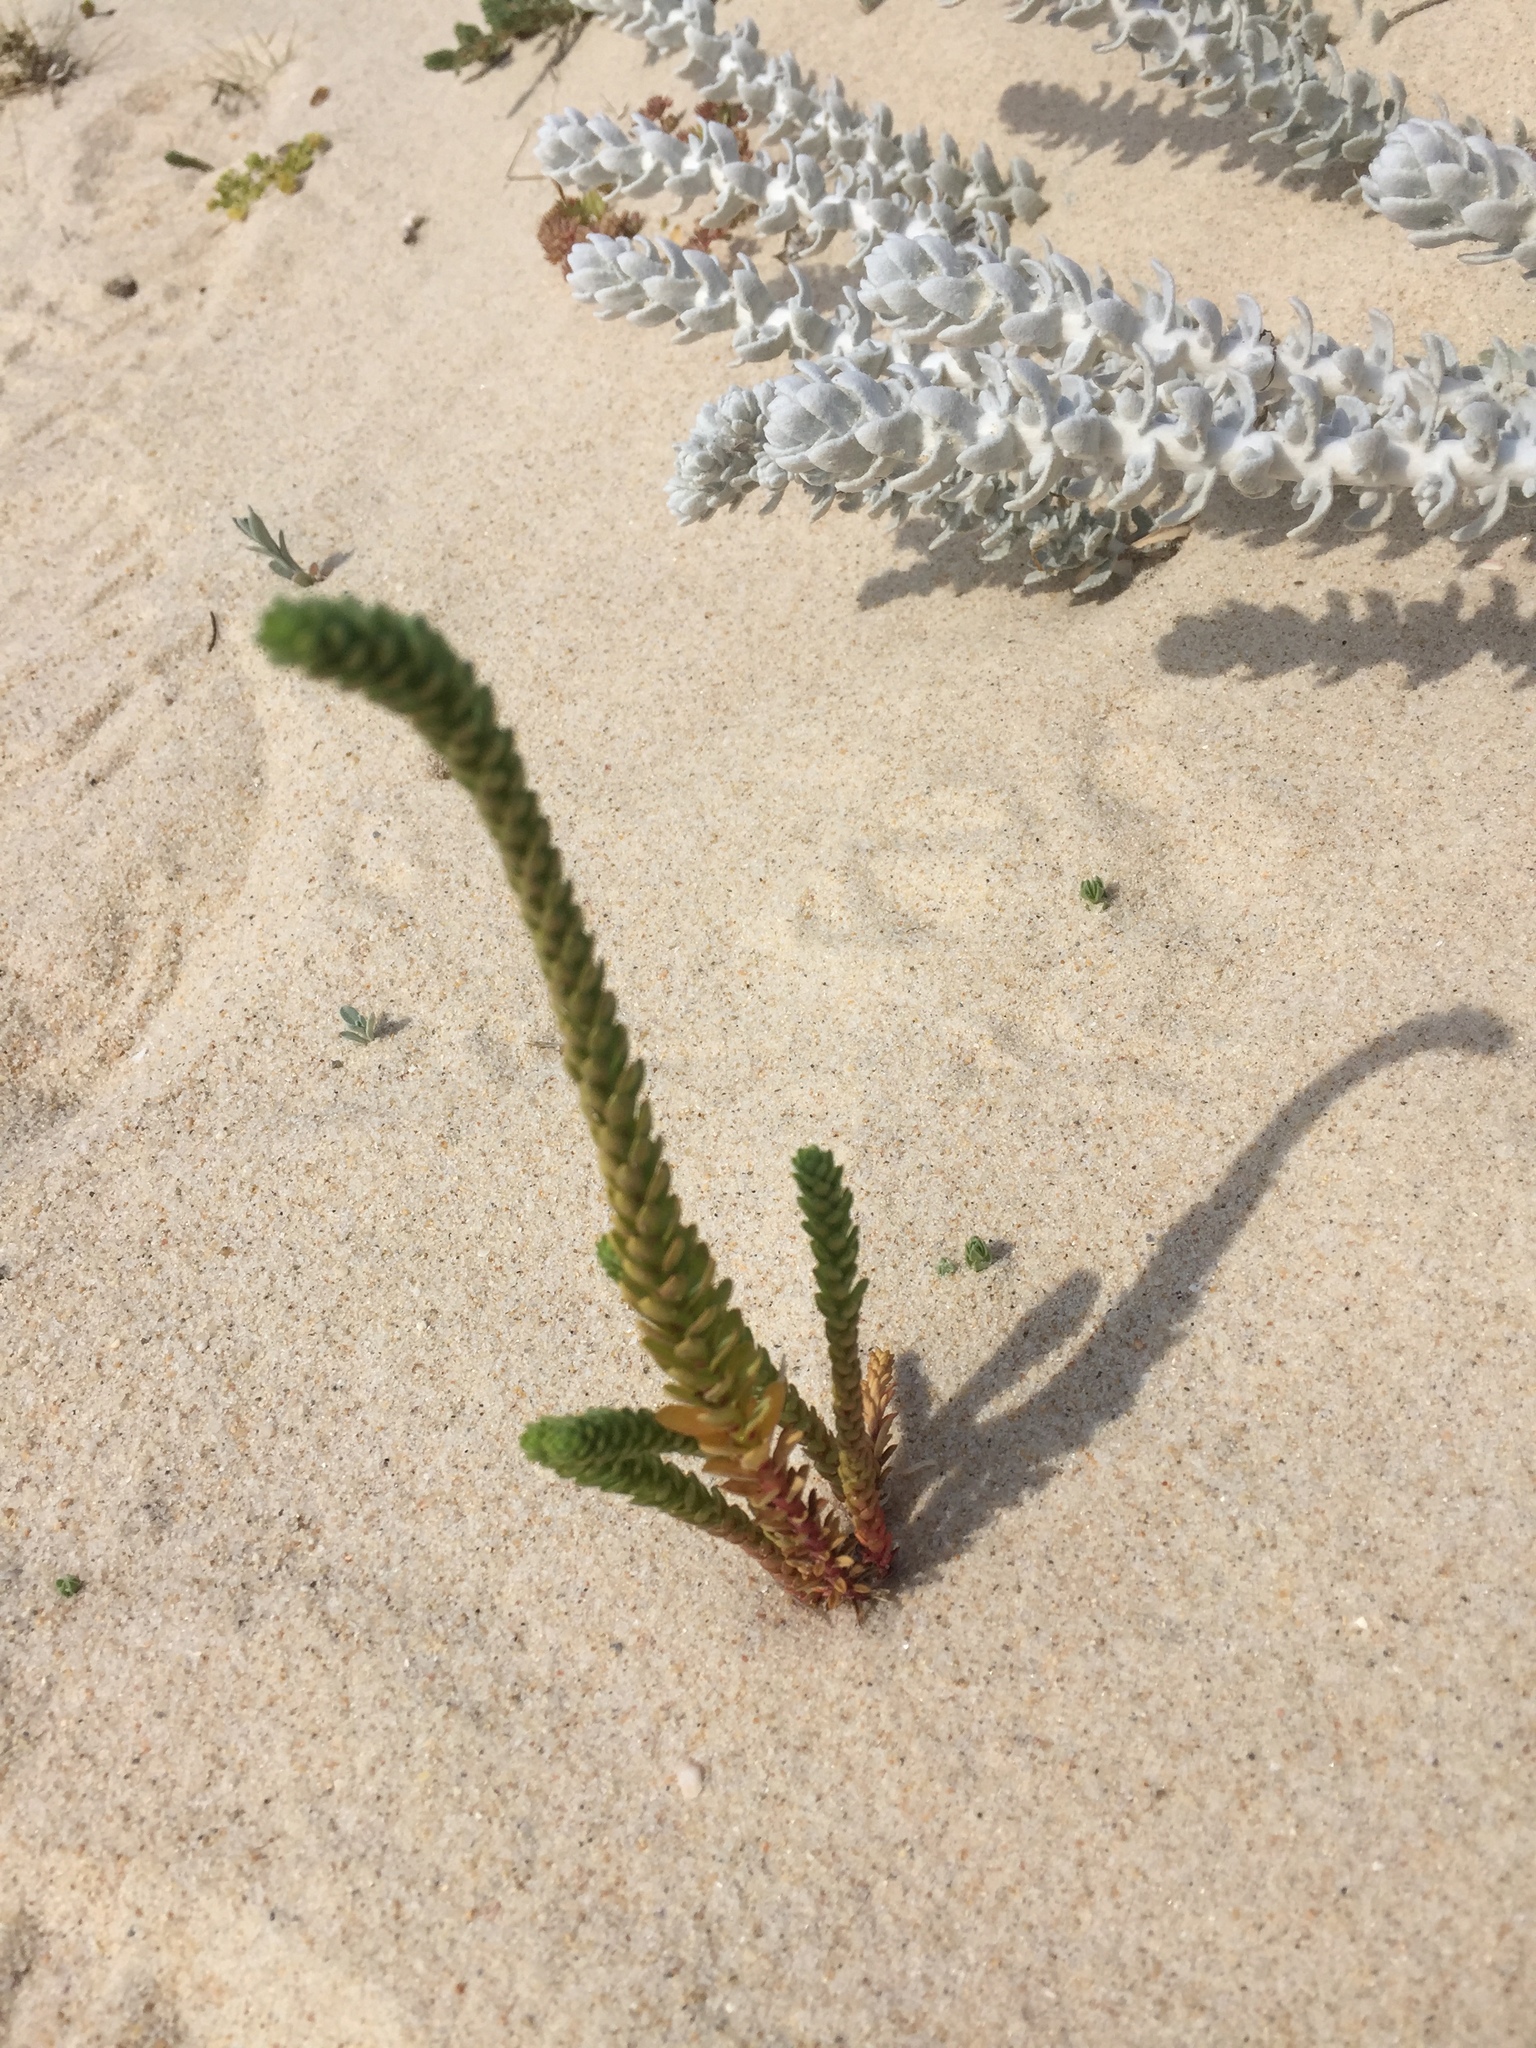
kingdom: Plantae
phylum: Tracheophyta
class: Magnoliopsida
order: Malpighiales
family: Euphorbiaceae
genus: Euphorbia
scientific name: Euphorbia paralias
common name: Sea spurge
